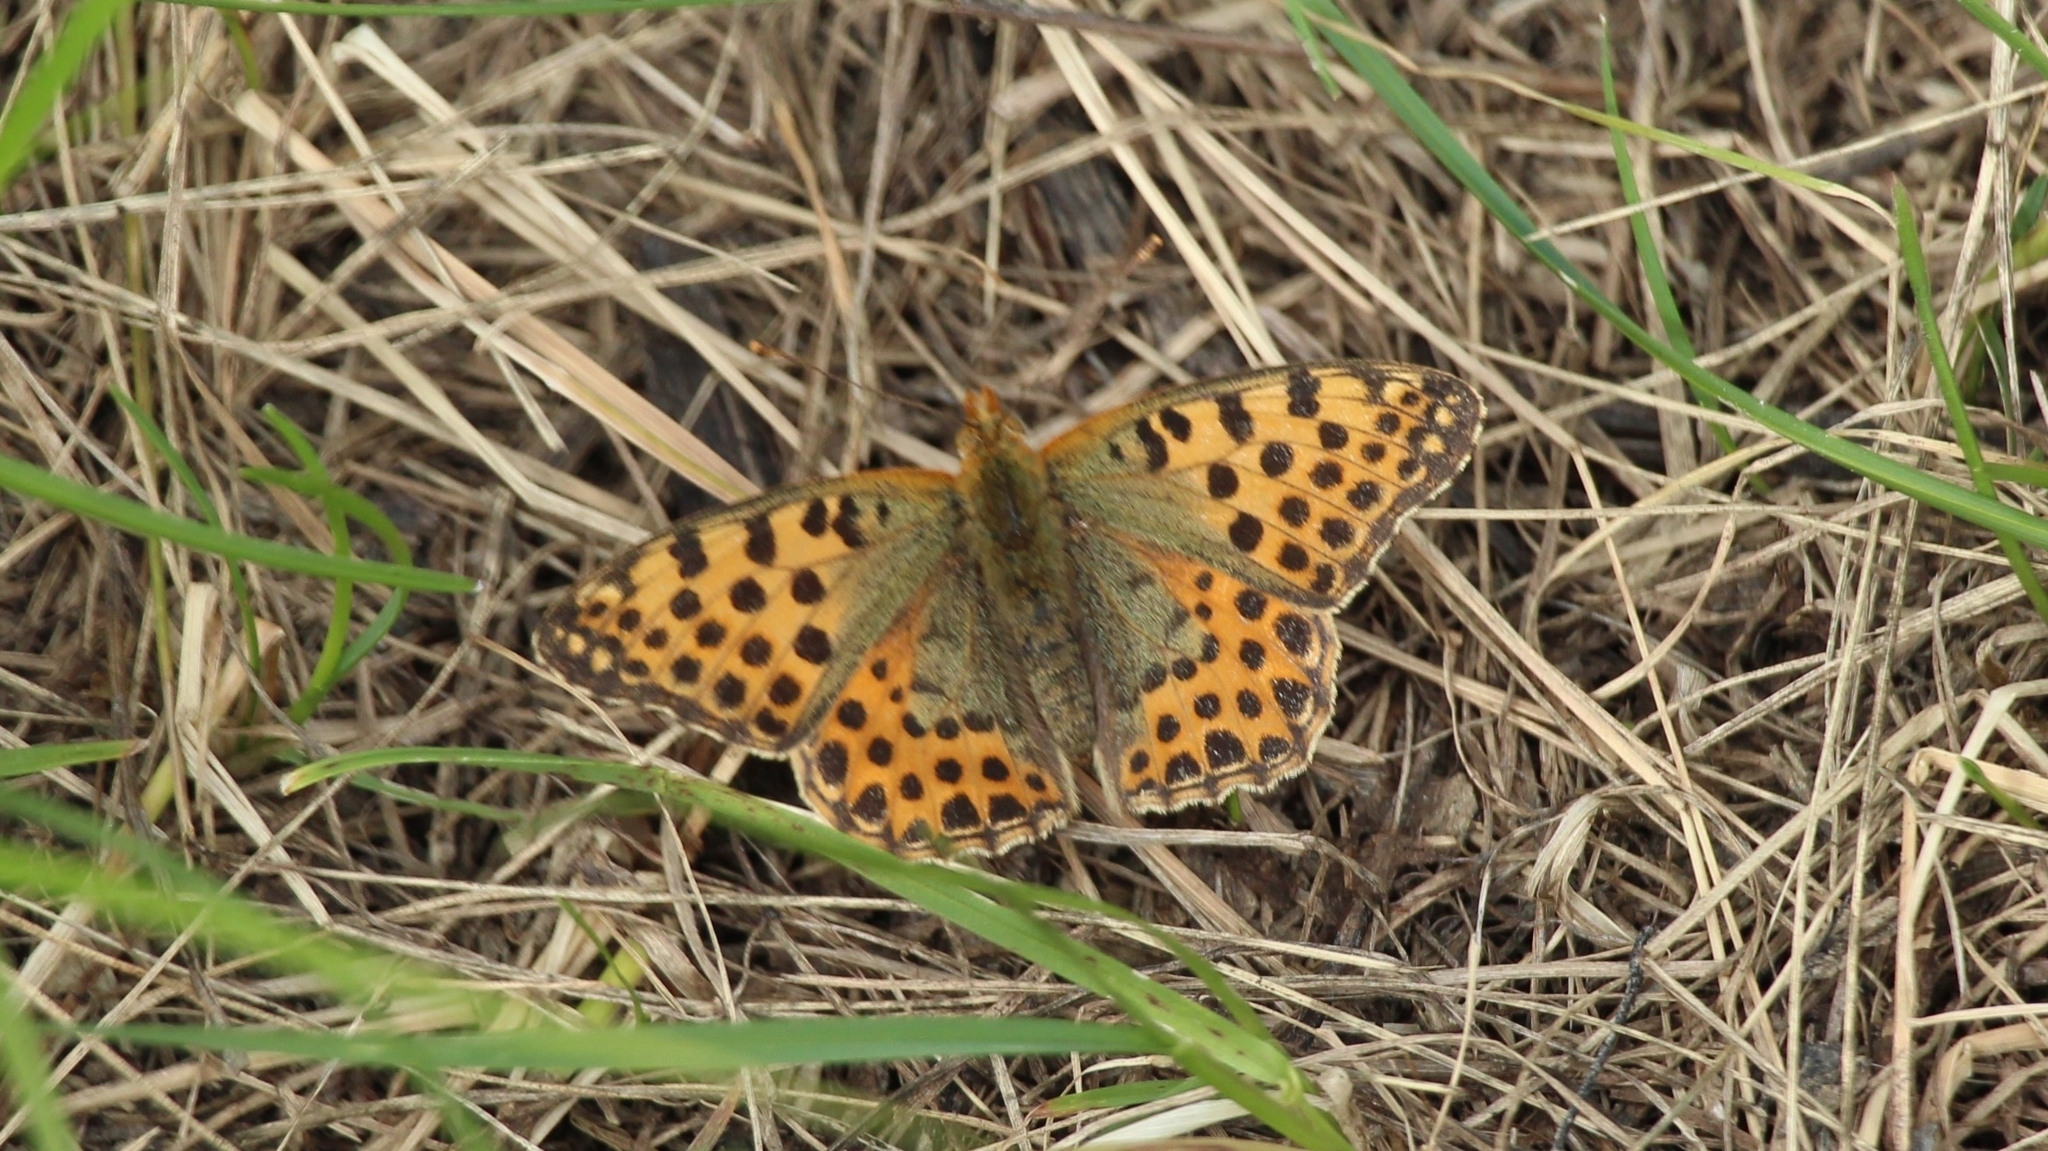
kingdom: Animalia
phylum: Arthropoda
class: Insecta
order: Lepidoptera
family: Nymphalidae
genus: Issoria
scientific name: Issoria lathonia
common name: Queen of spain fritillary
